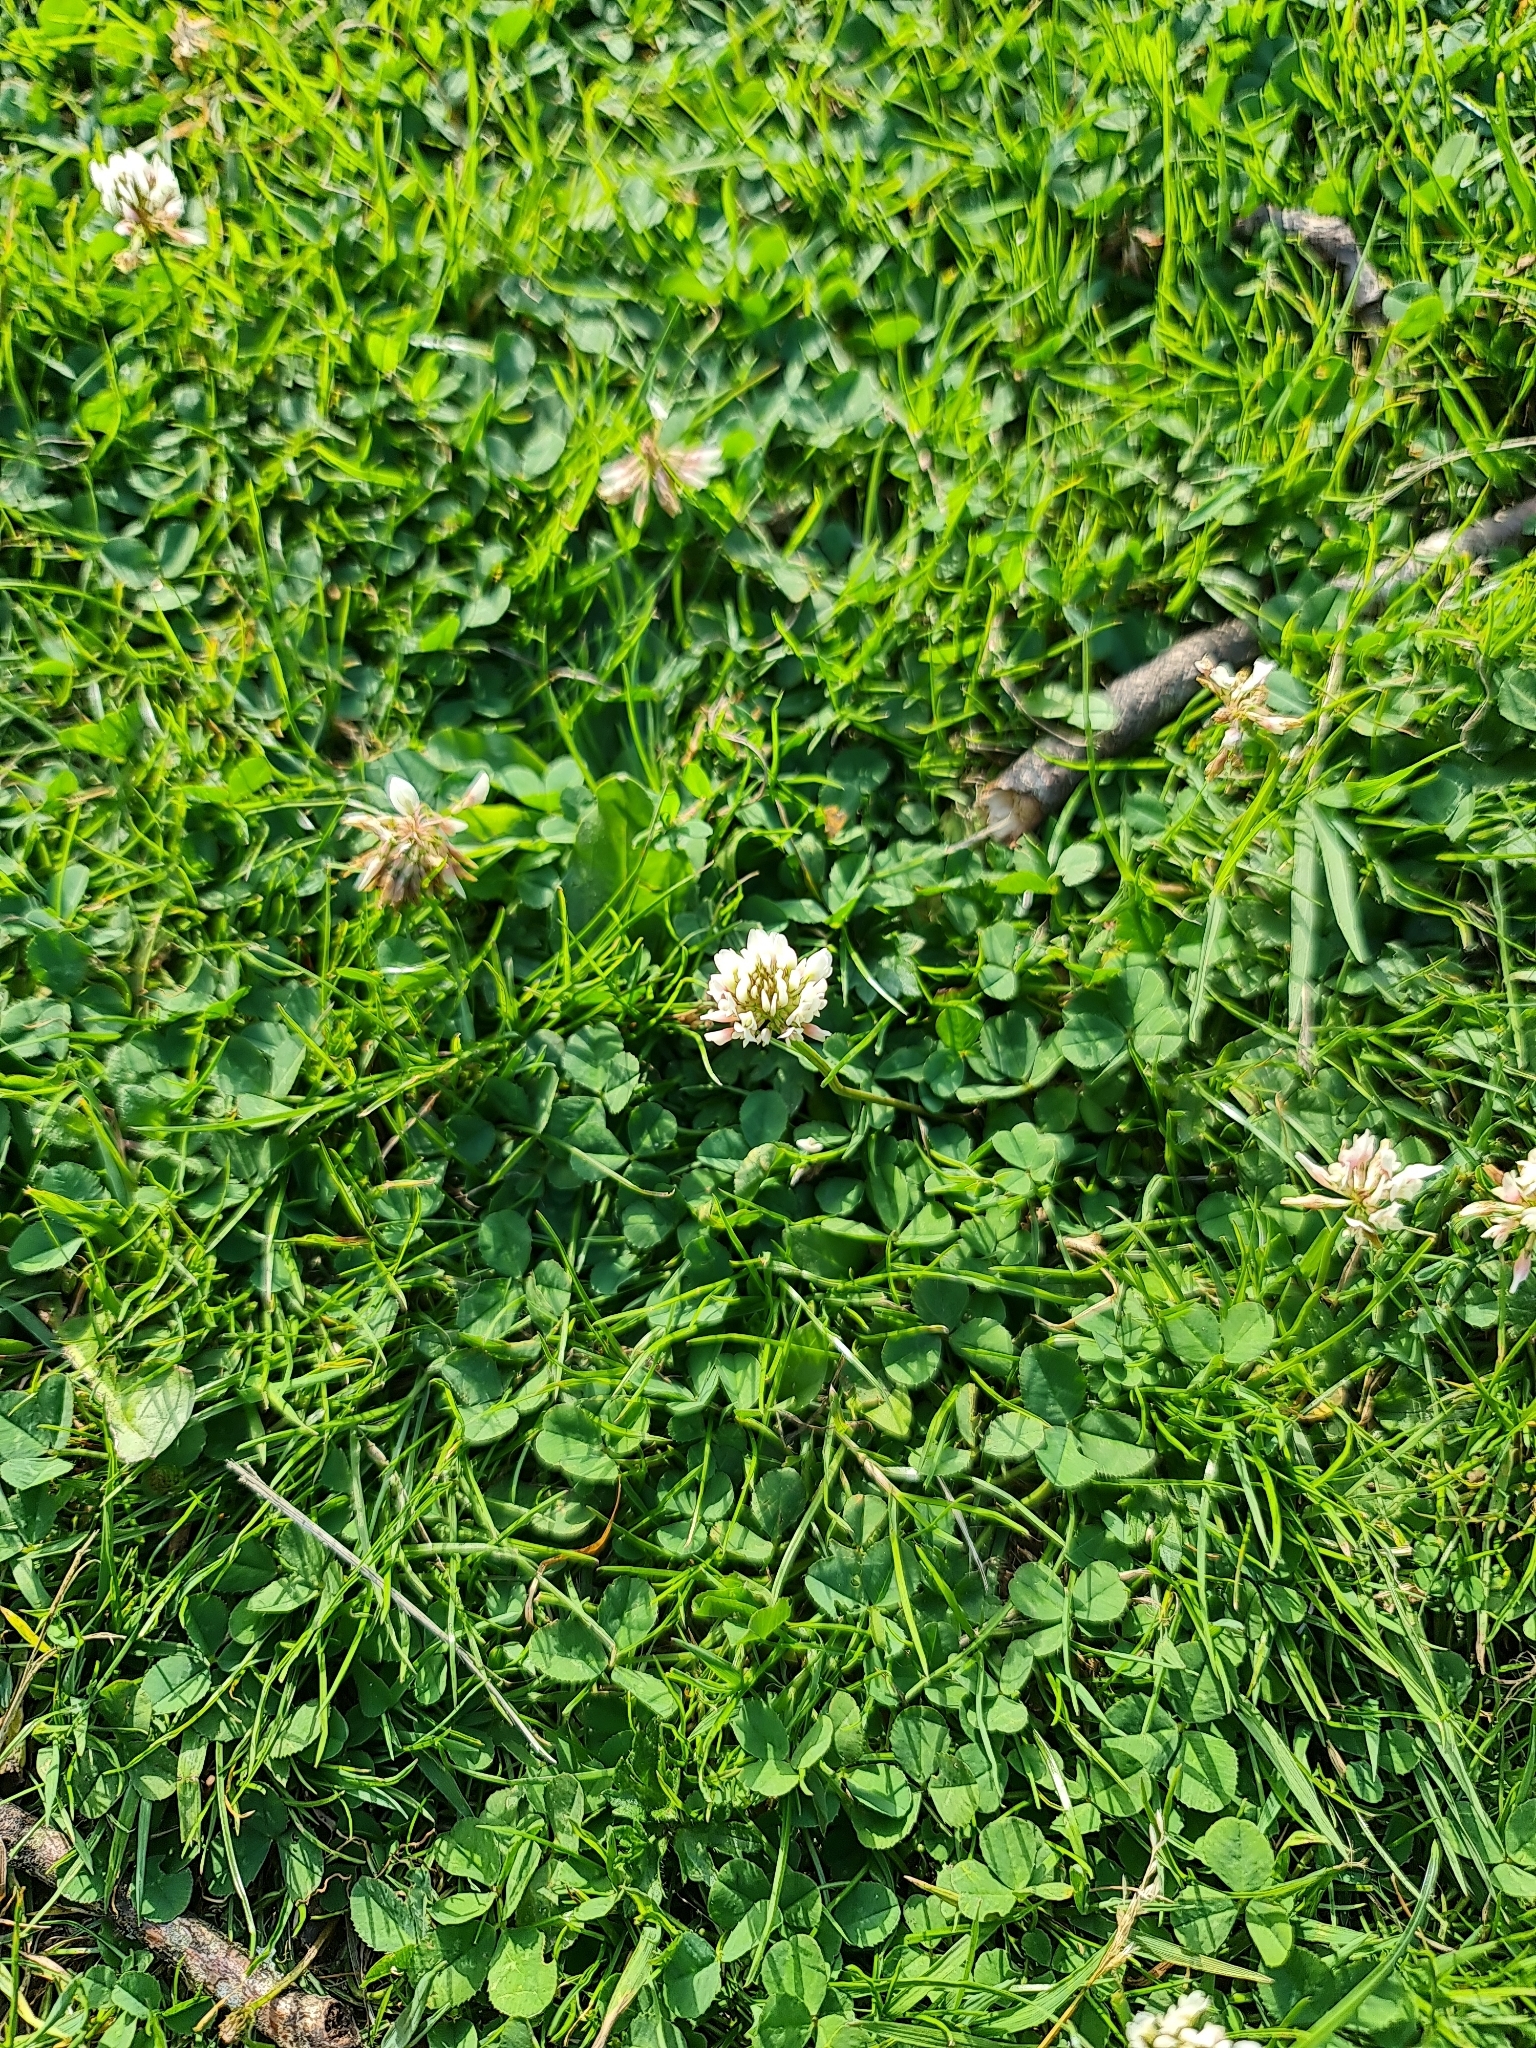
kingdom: Plantae
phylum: Tracheophyta
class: Magnoliopsida
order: Fabales
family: Fabaceae
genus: Trifolium
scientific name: Trifolium repens
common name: White clover
